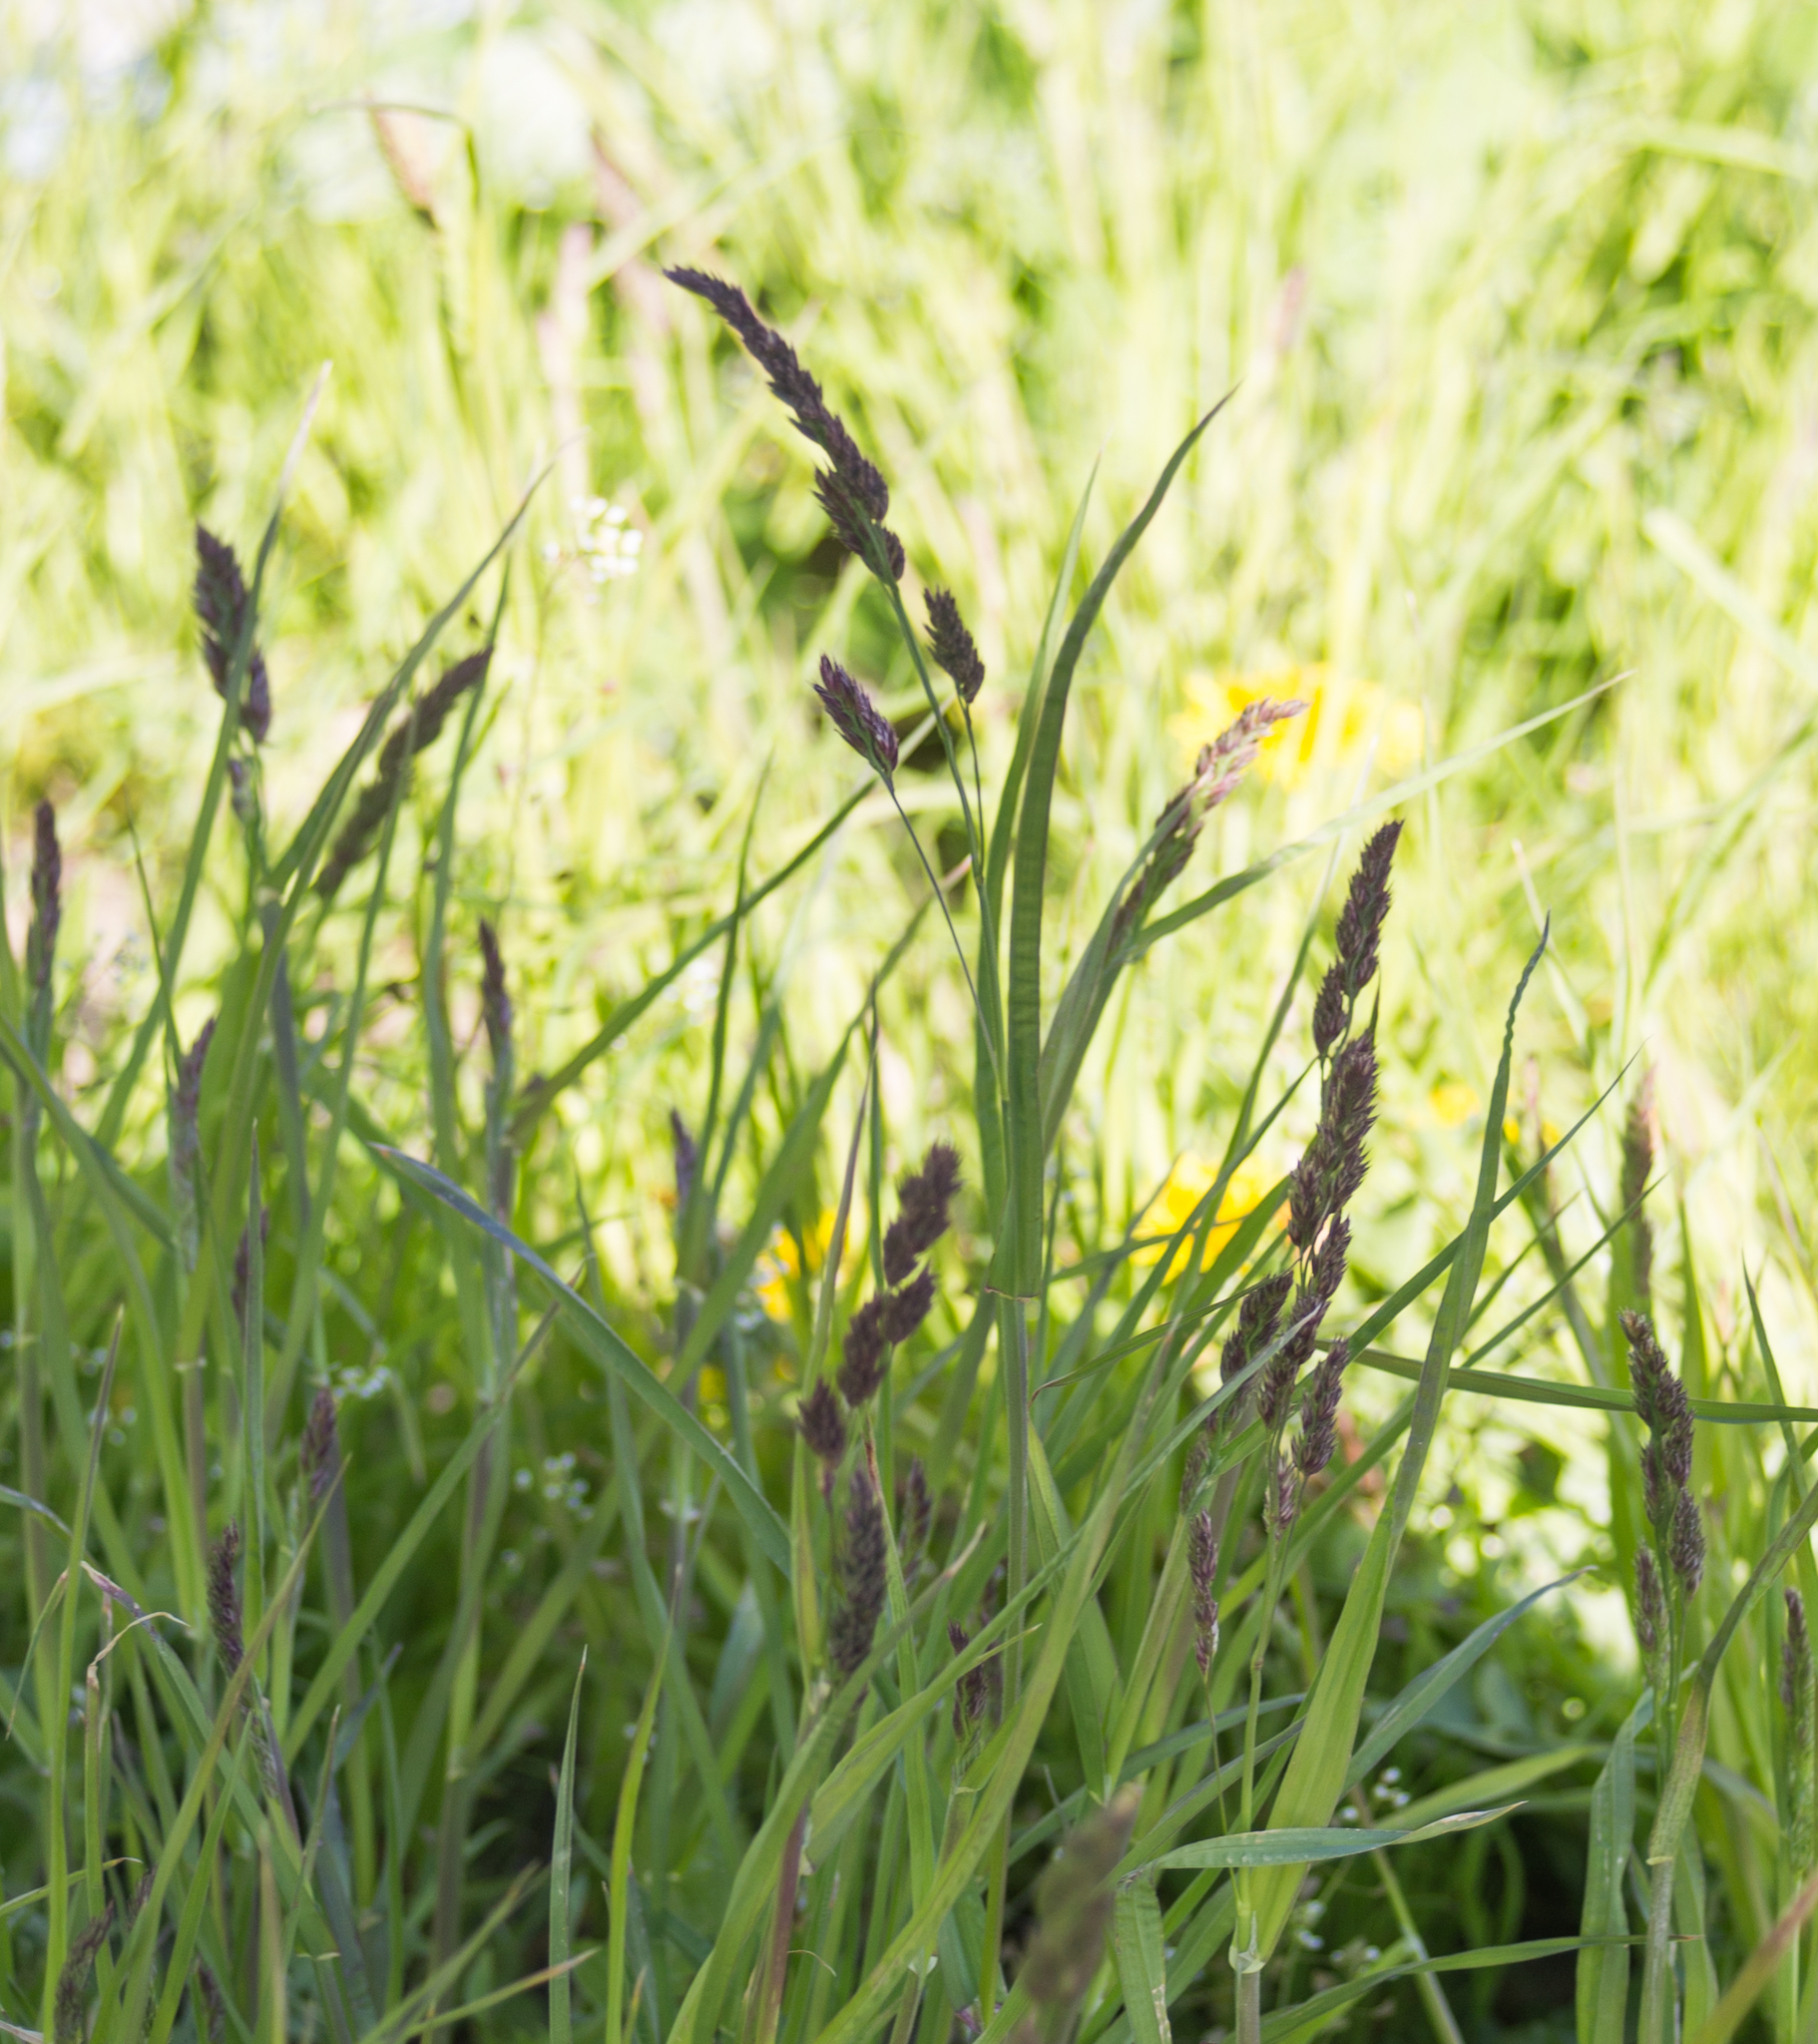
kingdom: Plantae
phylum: Tracheophyta
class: Liliopsida
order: Poales
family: Poaceae
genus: Dactylis
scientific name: Dactylis glomerata
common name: Orchardgrass
